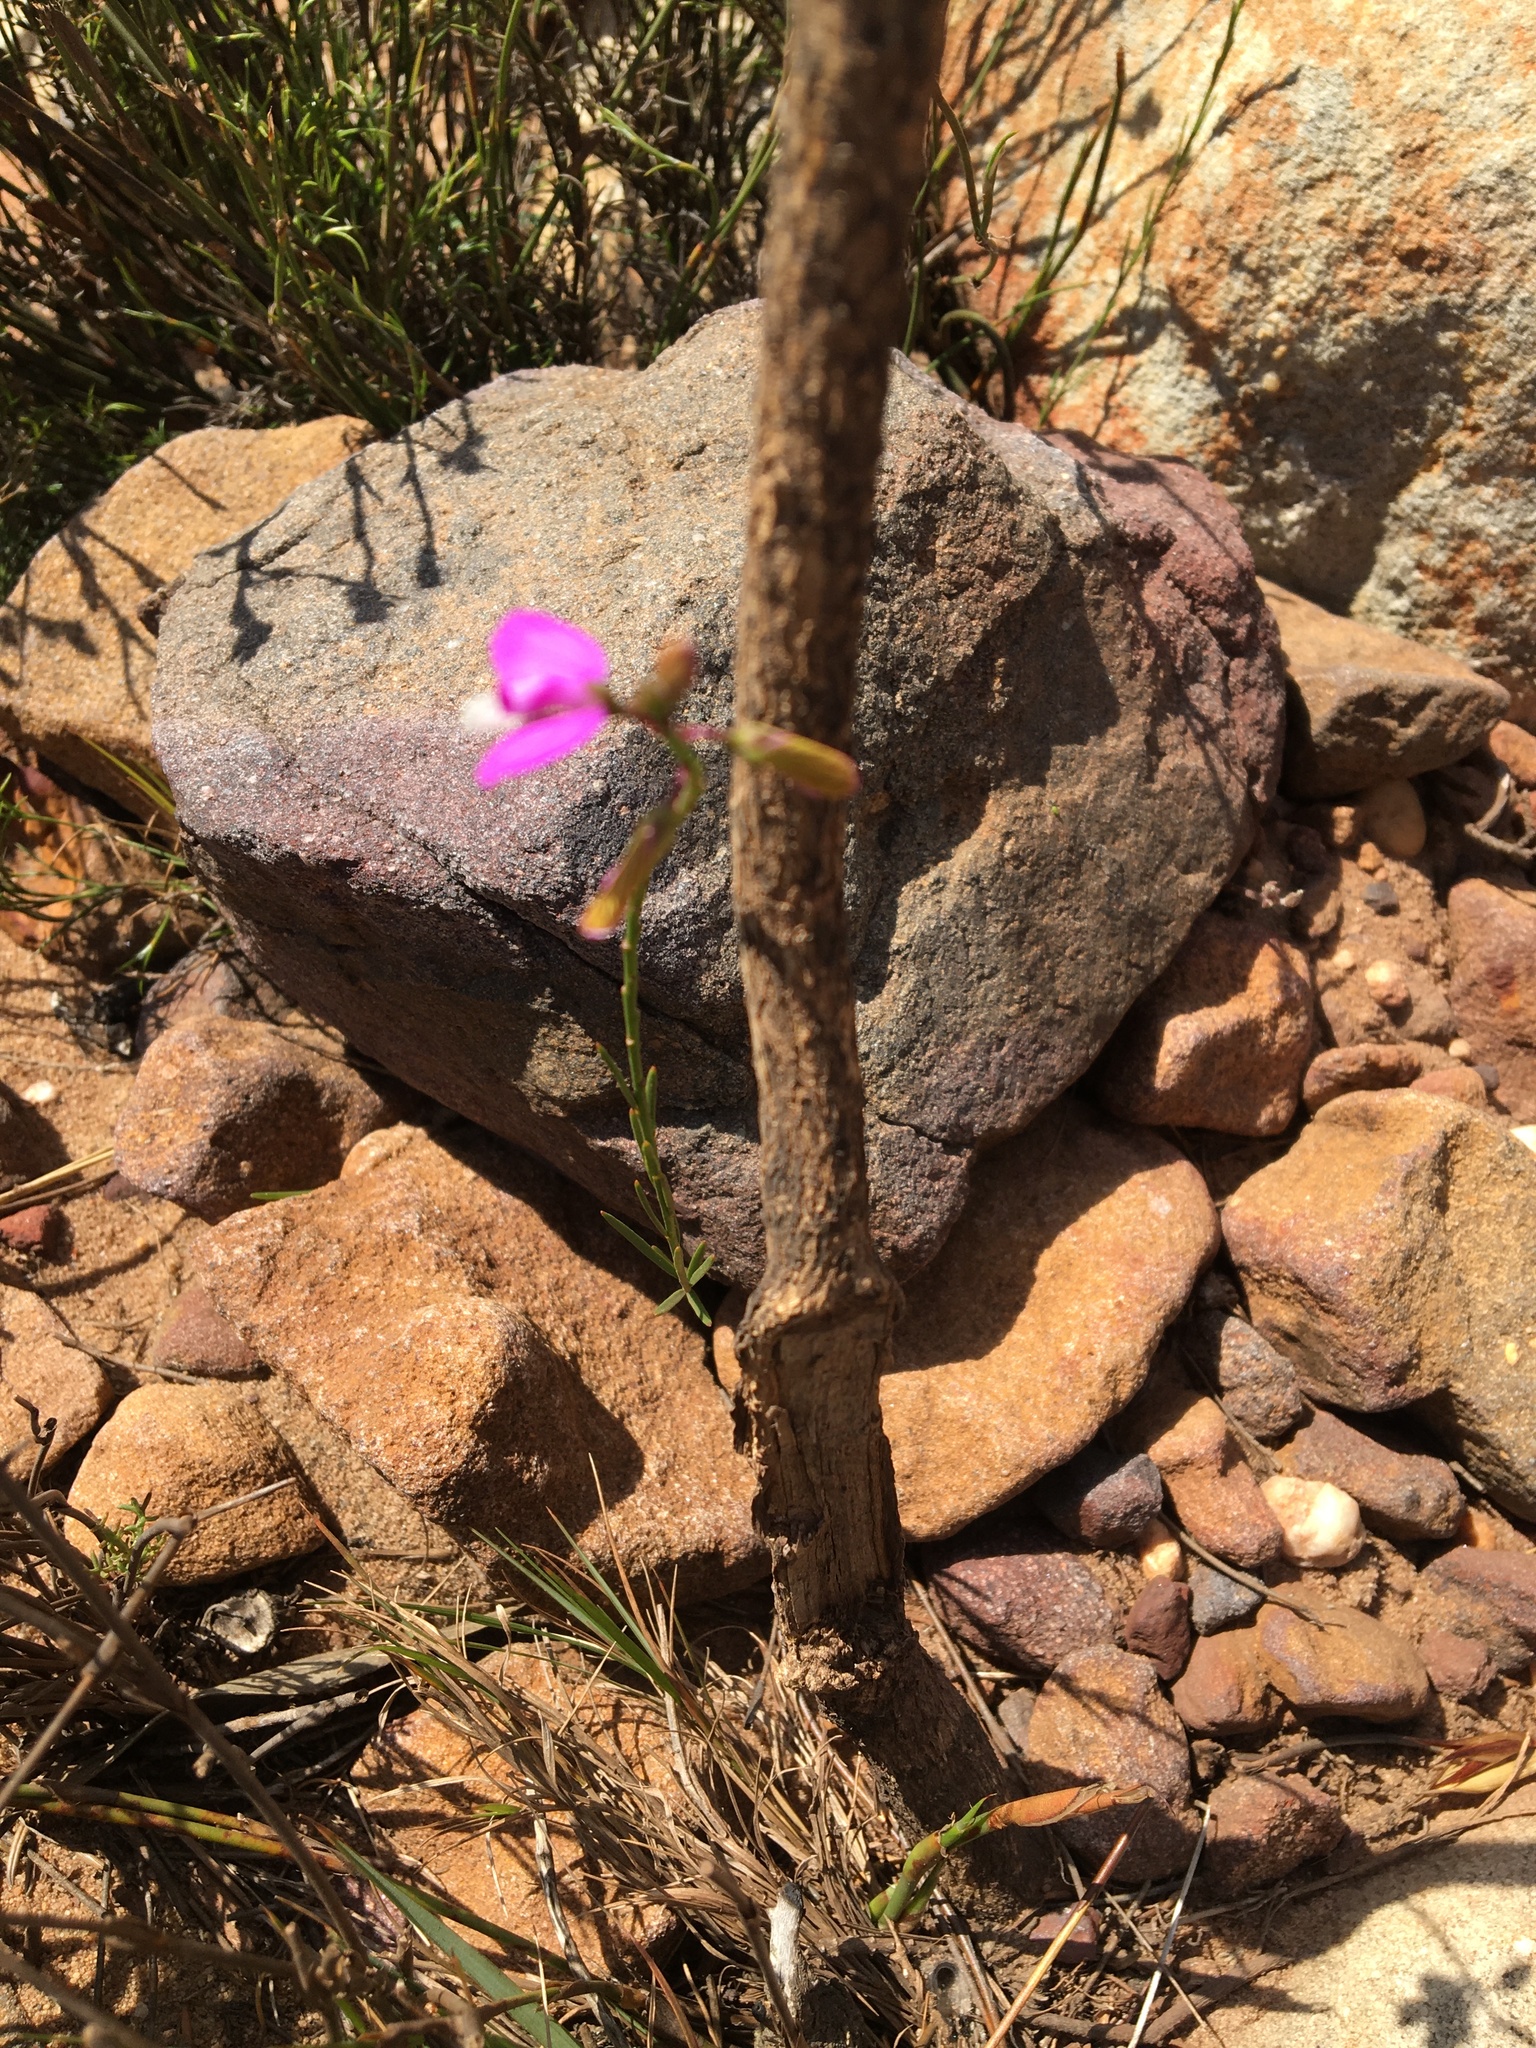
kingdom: Plantae
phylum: Tracheophyta
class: Magnoliopsida
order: Fabales
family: Polygalaceae
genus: Polygala
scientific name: Polygala garcini
